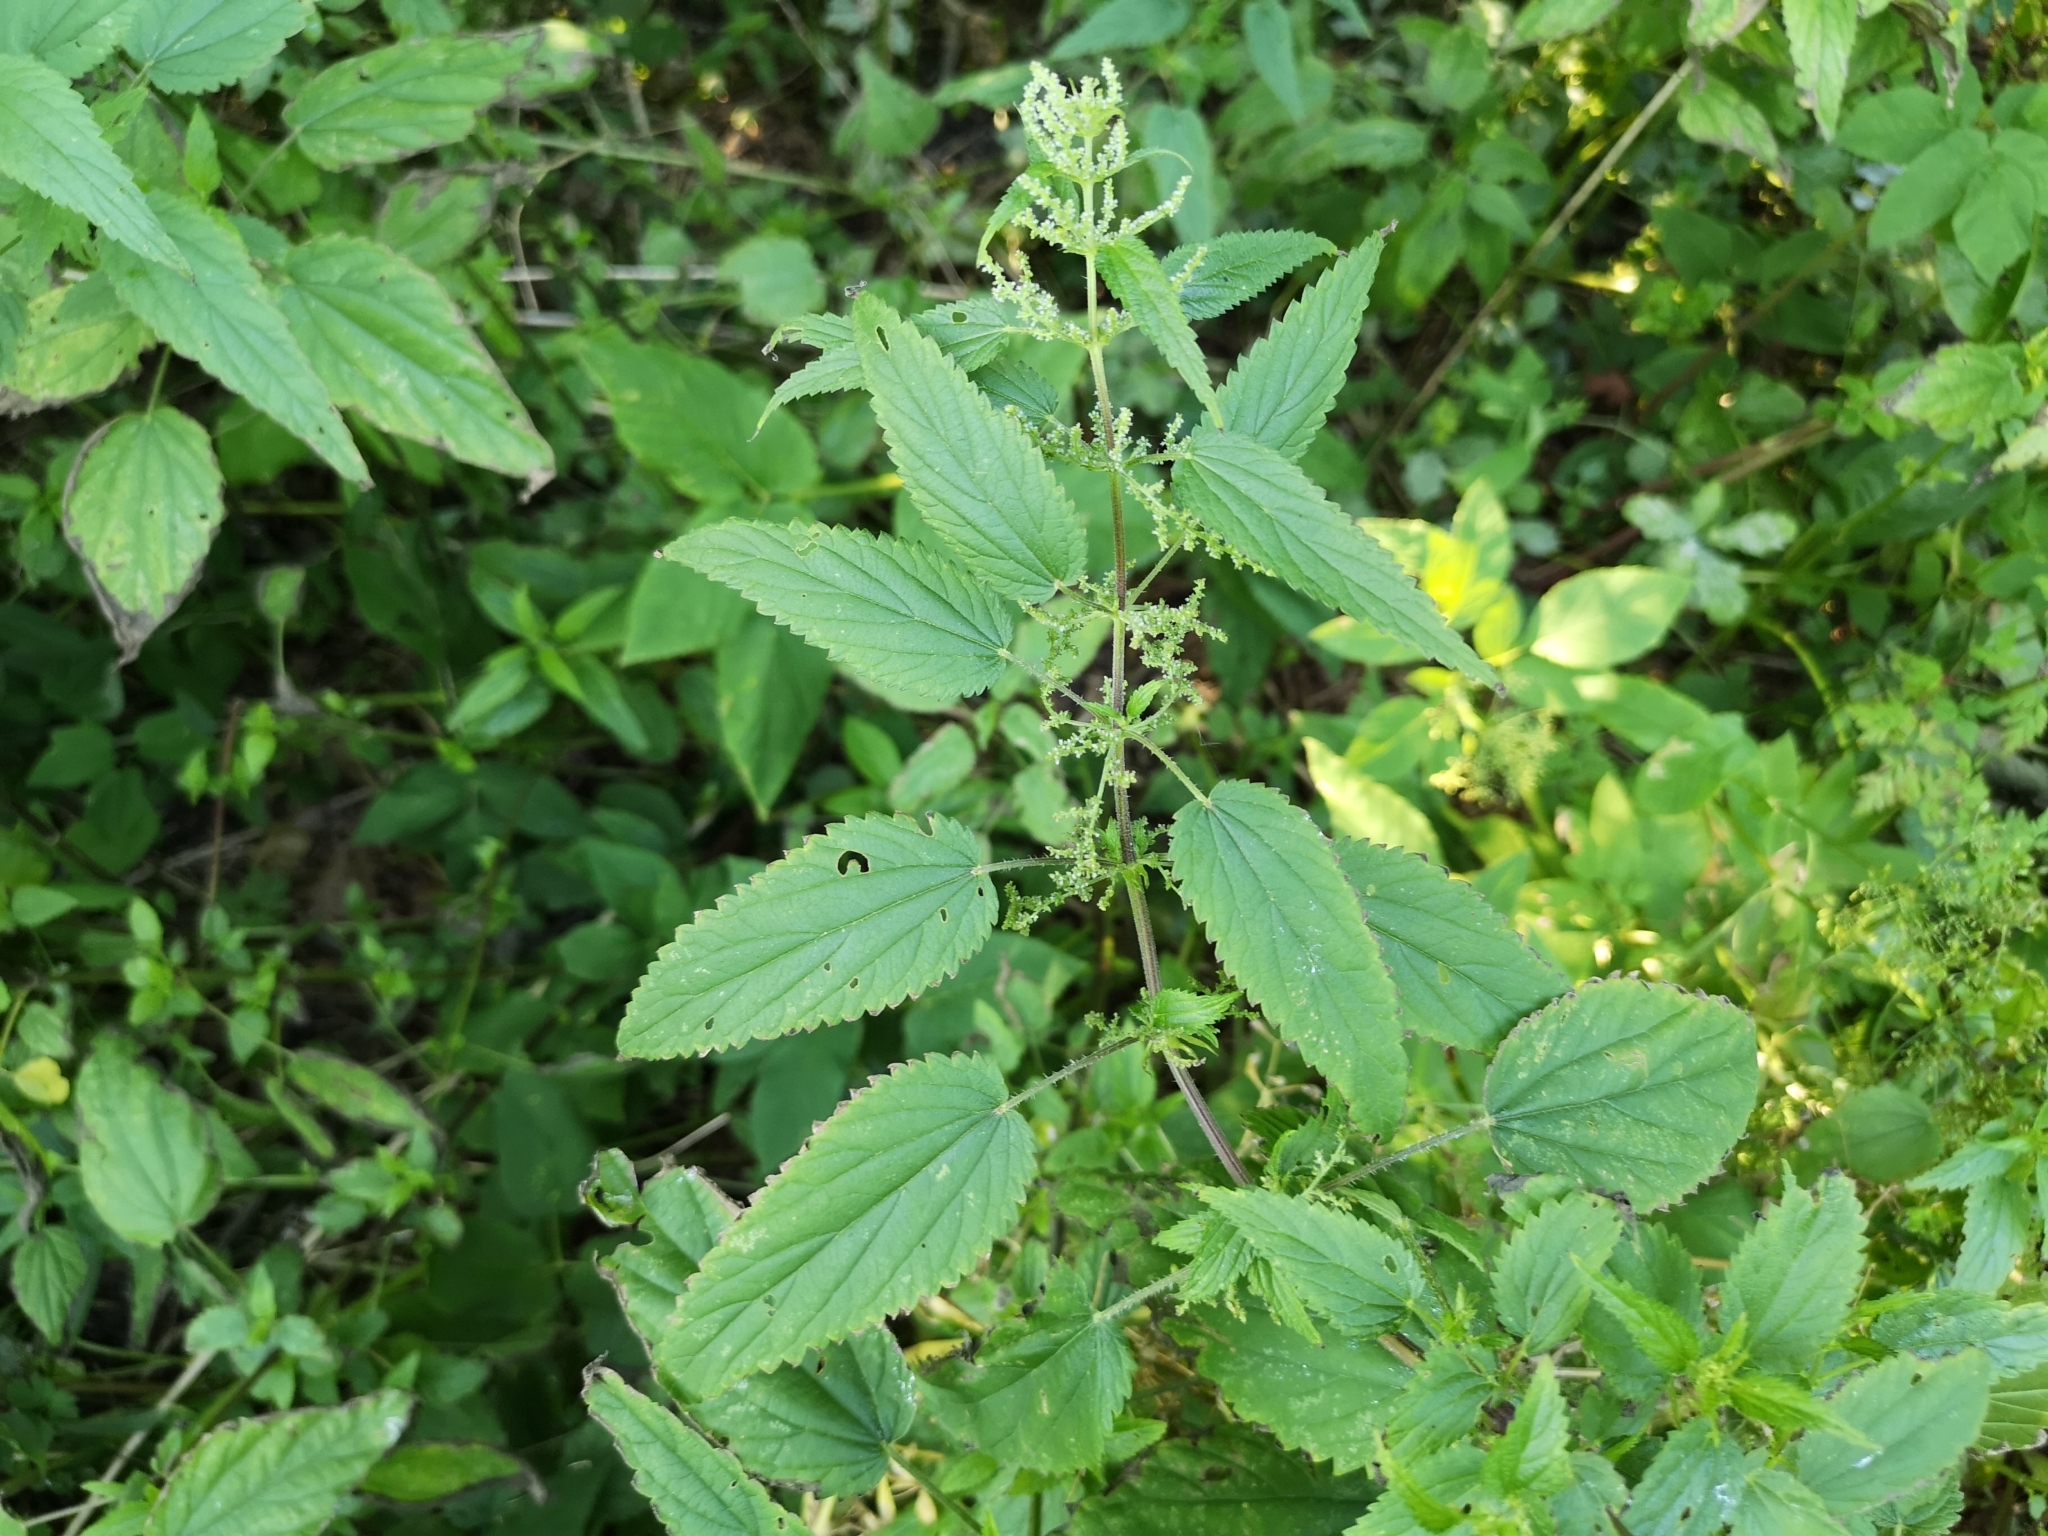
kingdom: Plantae
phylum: Tracheophyta
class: Magnoliopsida
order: Rosales
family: Urticaceae
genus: Urtica
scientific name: Urtica galeopsifolia
